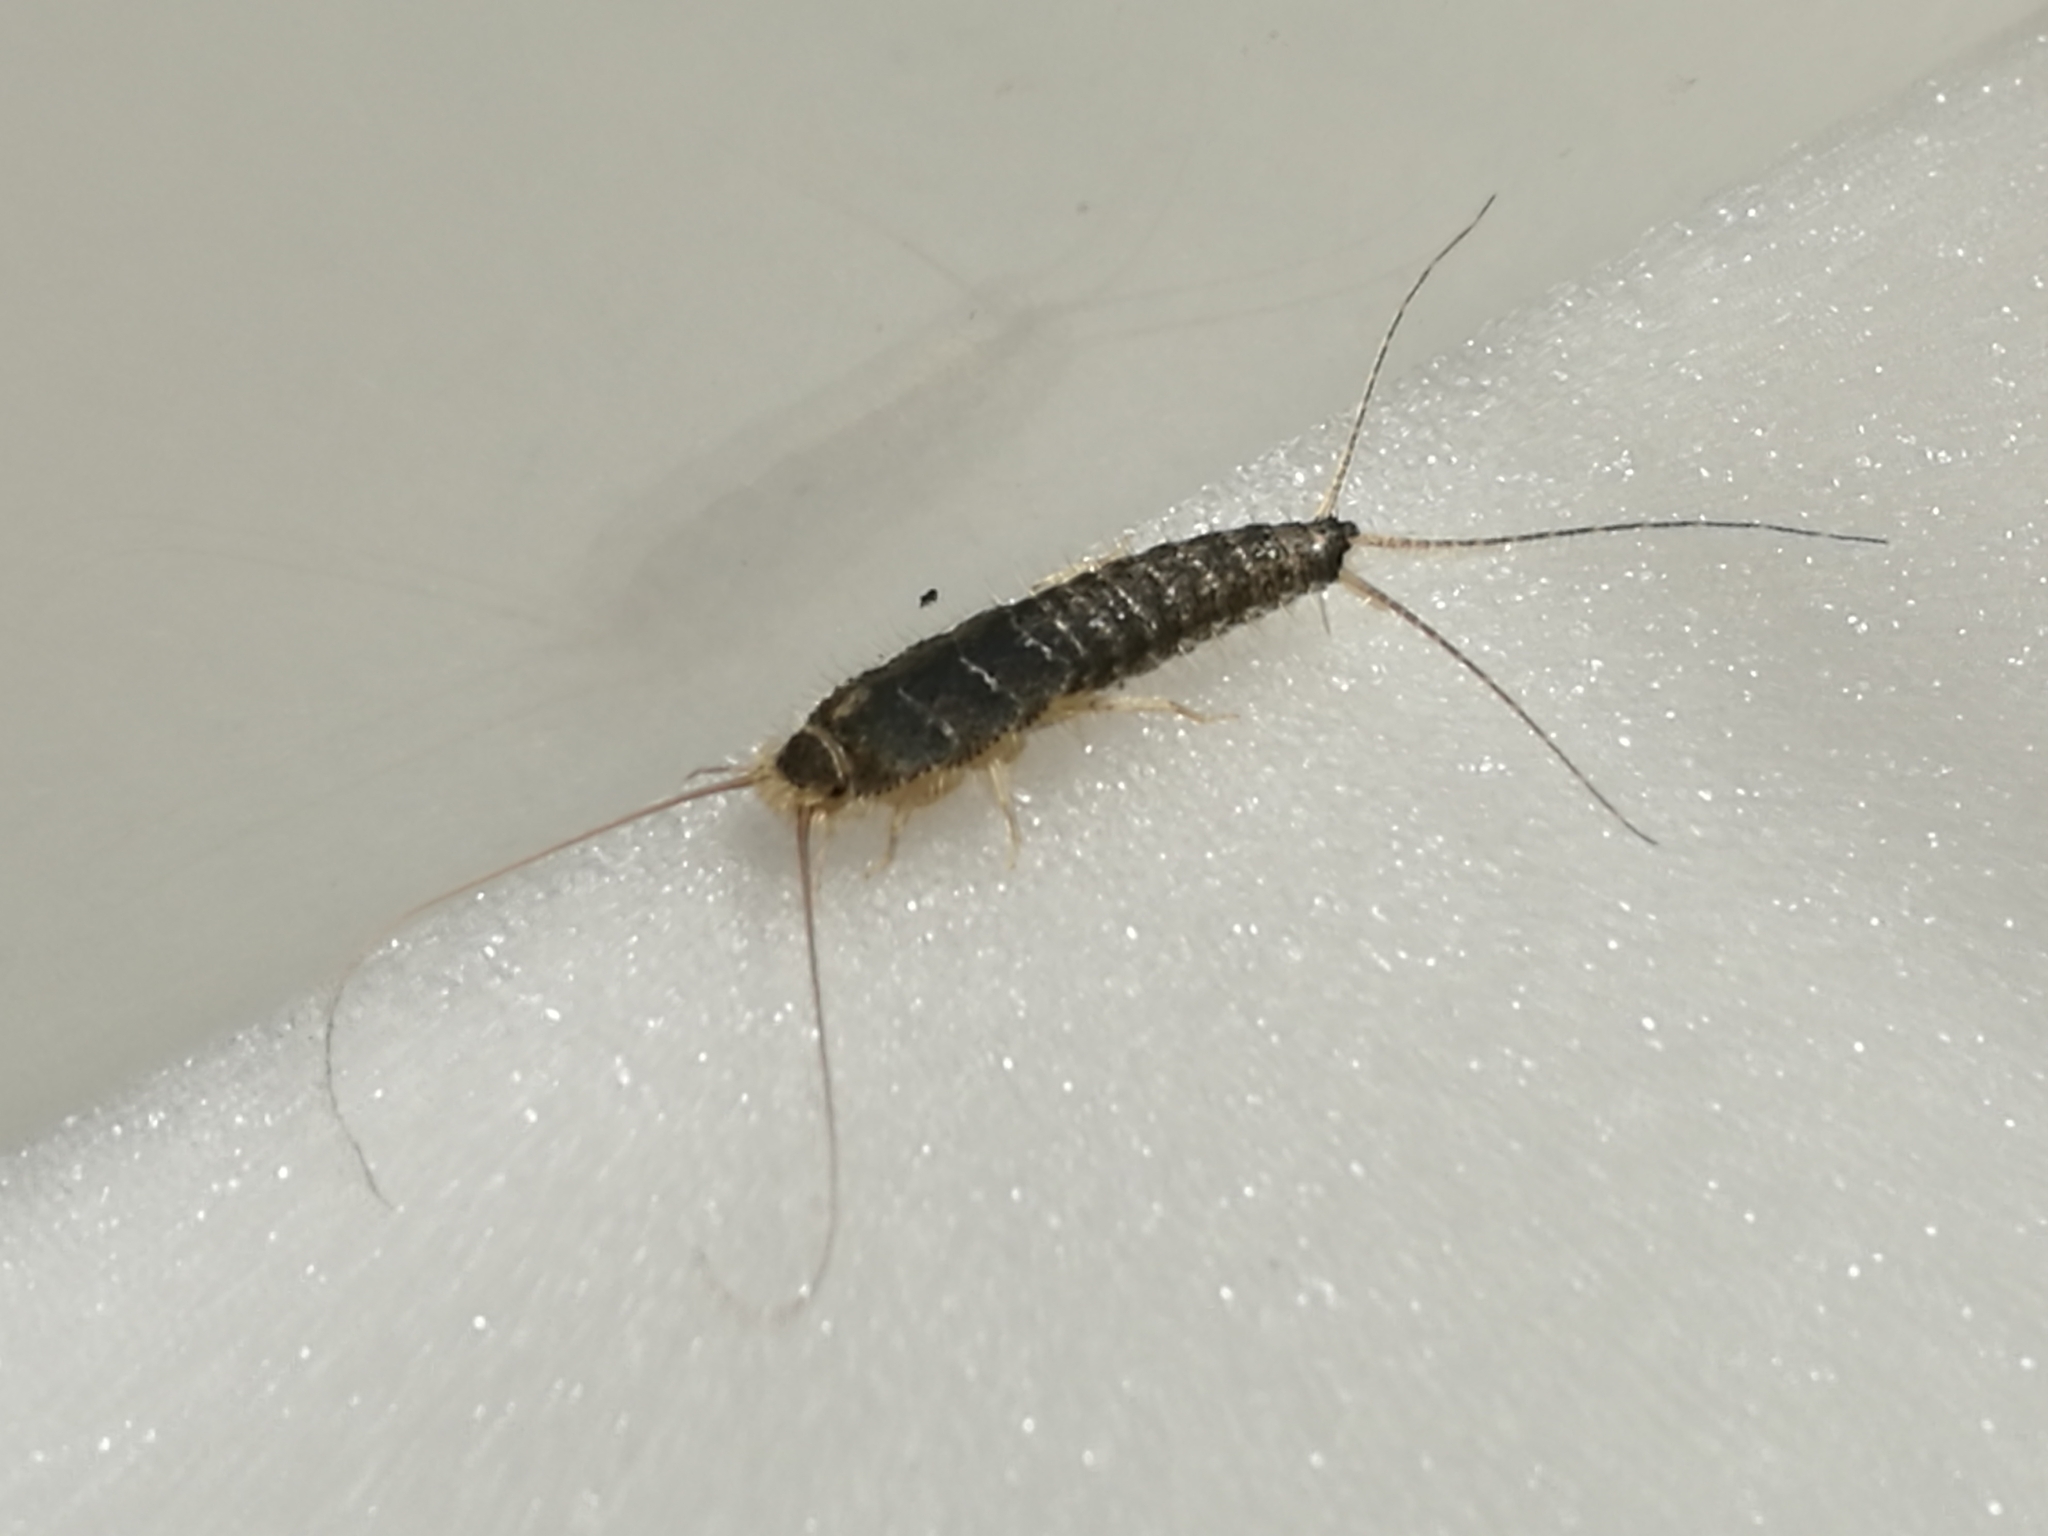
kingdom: Animalia
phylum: Arthropoda
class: Insecta
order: Zygentoma
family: Lepismatidae
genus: Ctenolepisma
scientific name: Ctenolepisma longicaudatum
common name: Silverfish
